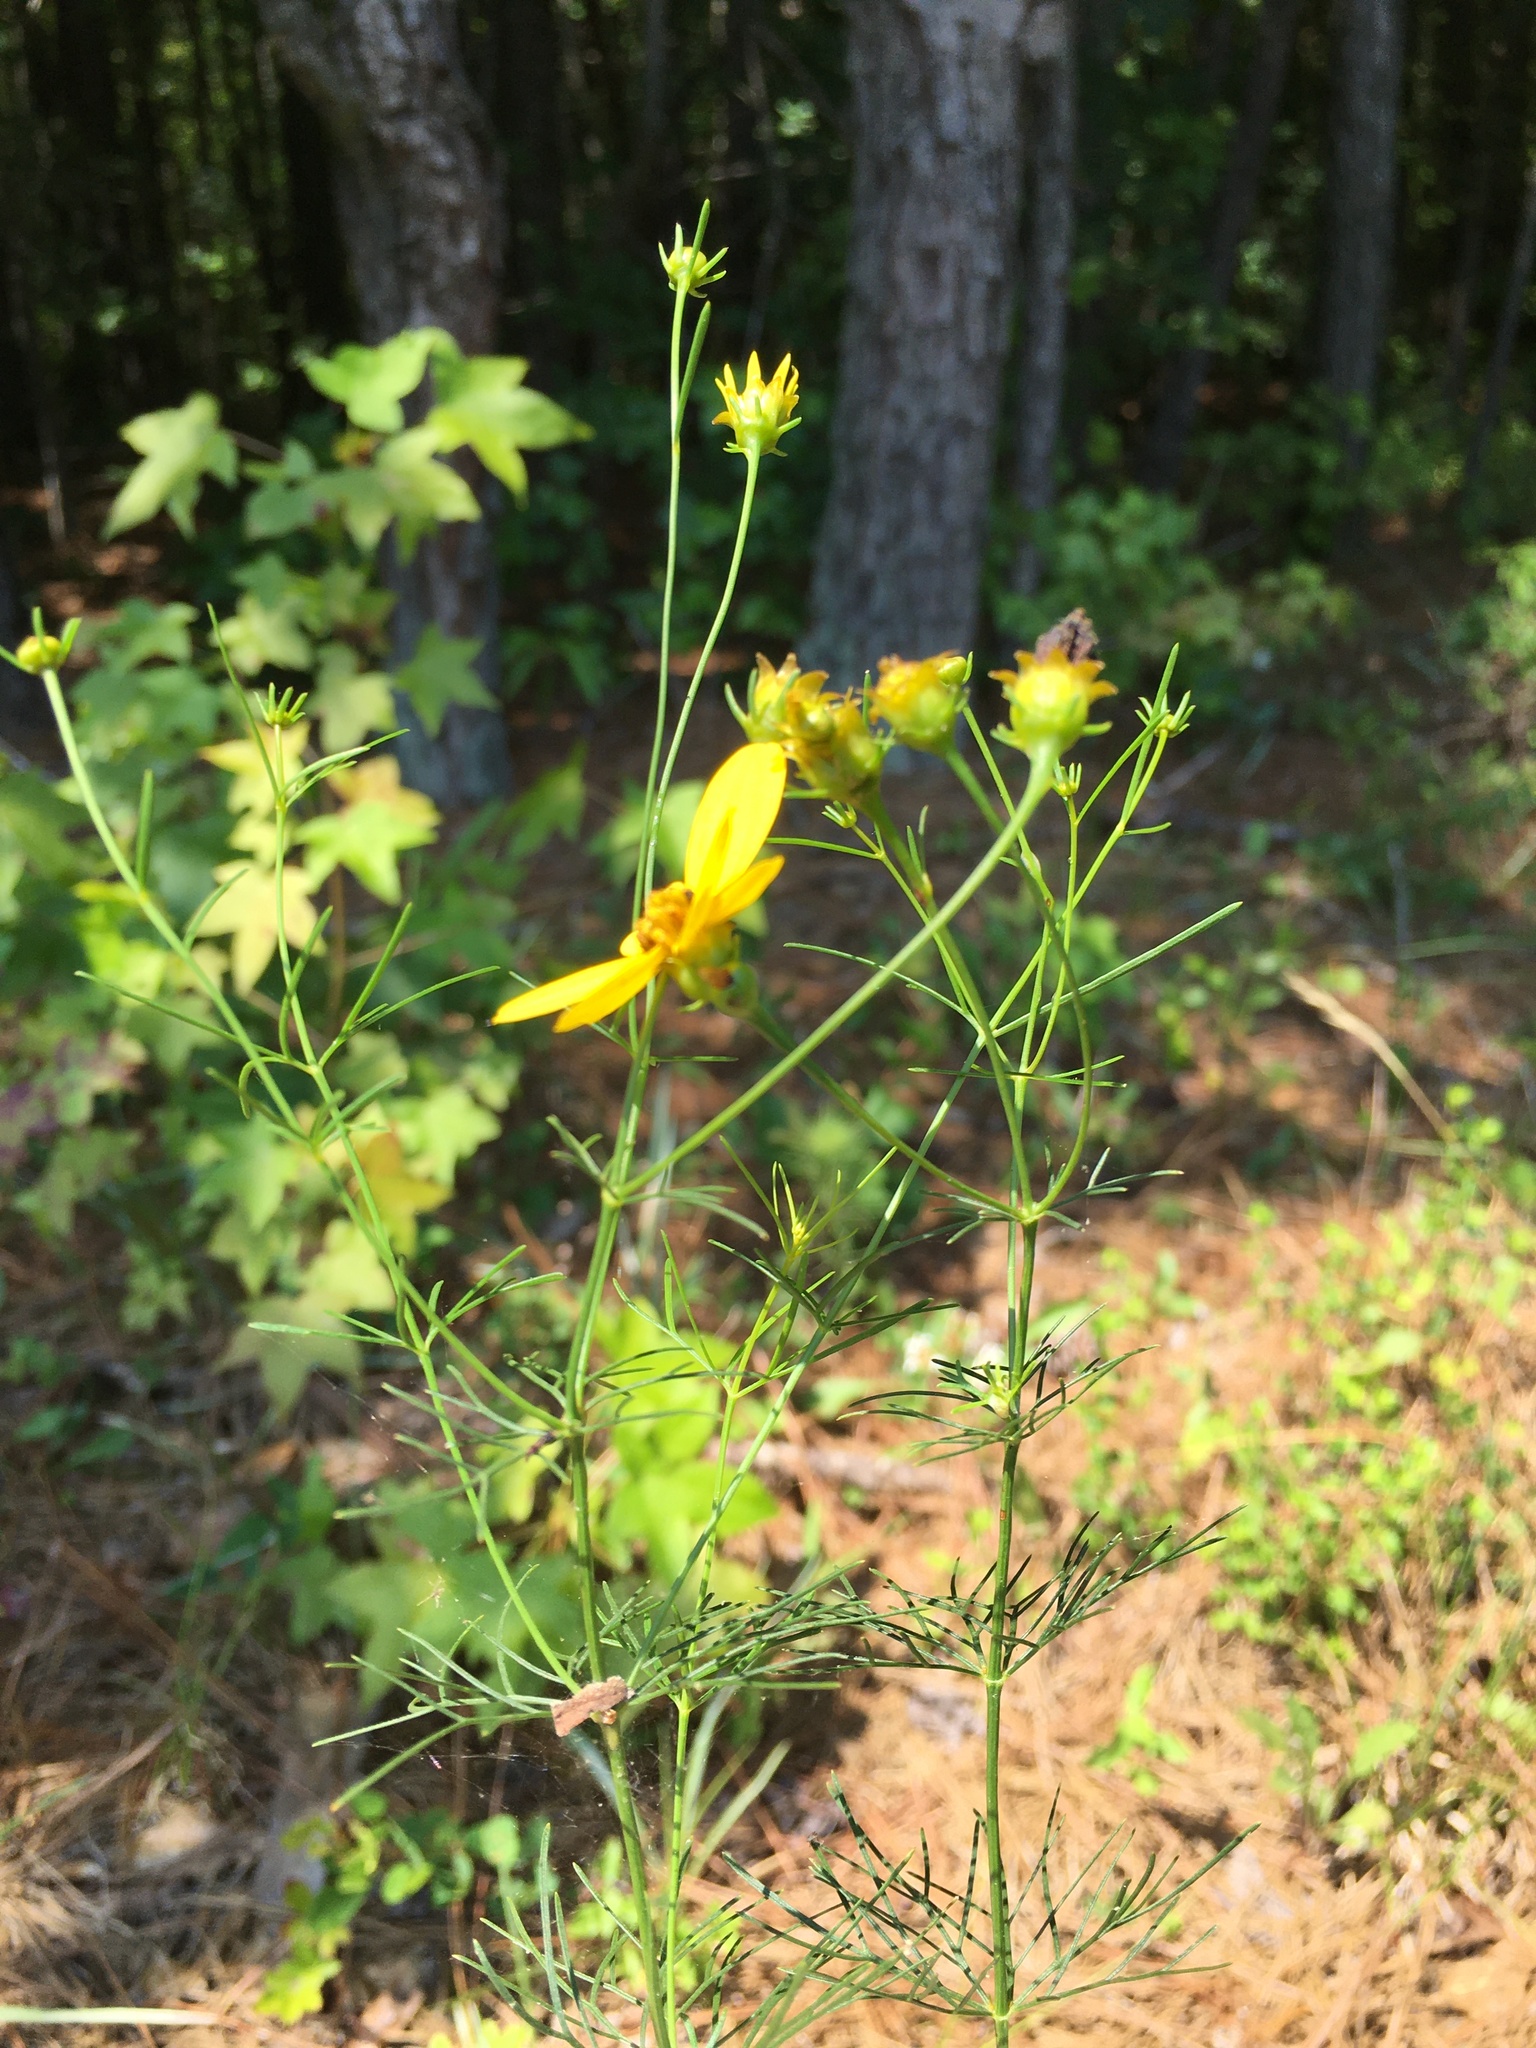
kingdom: Plantae
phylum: Tracheophyta
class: Magnoliopsida
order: Asterales
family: Asteraceae
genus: Coreopsis
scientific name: Coreopsis verticillata
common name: Whorled tickseed
